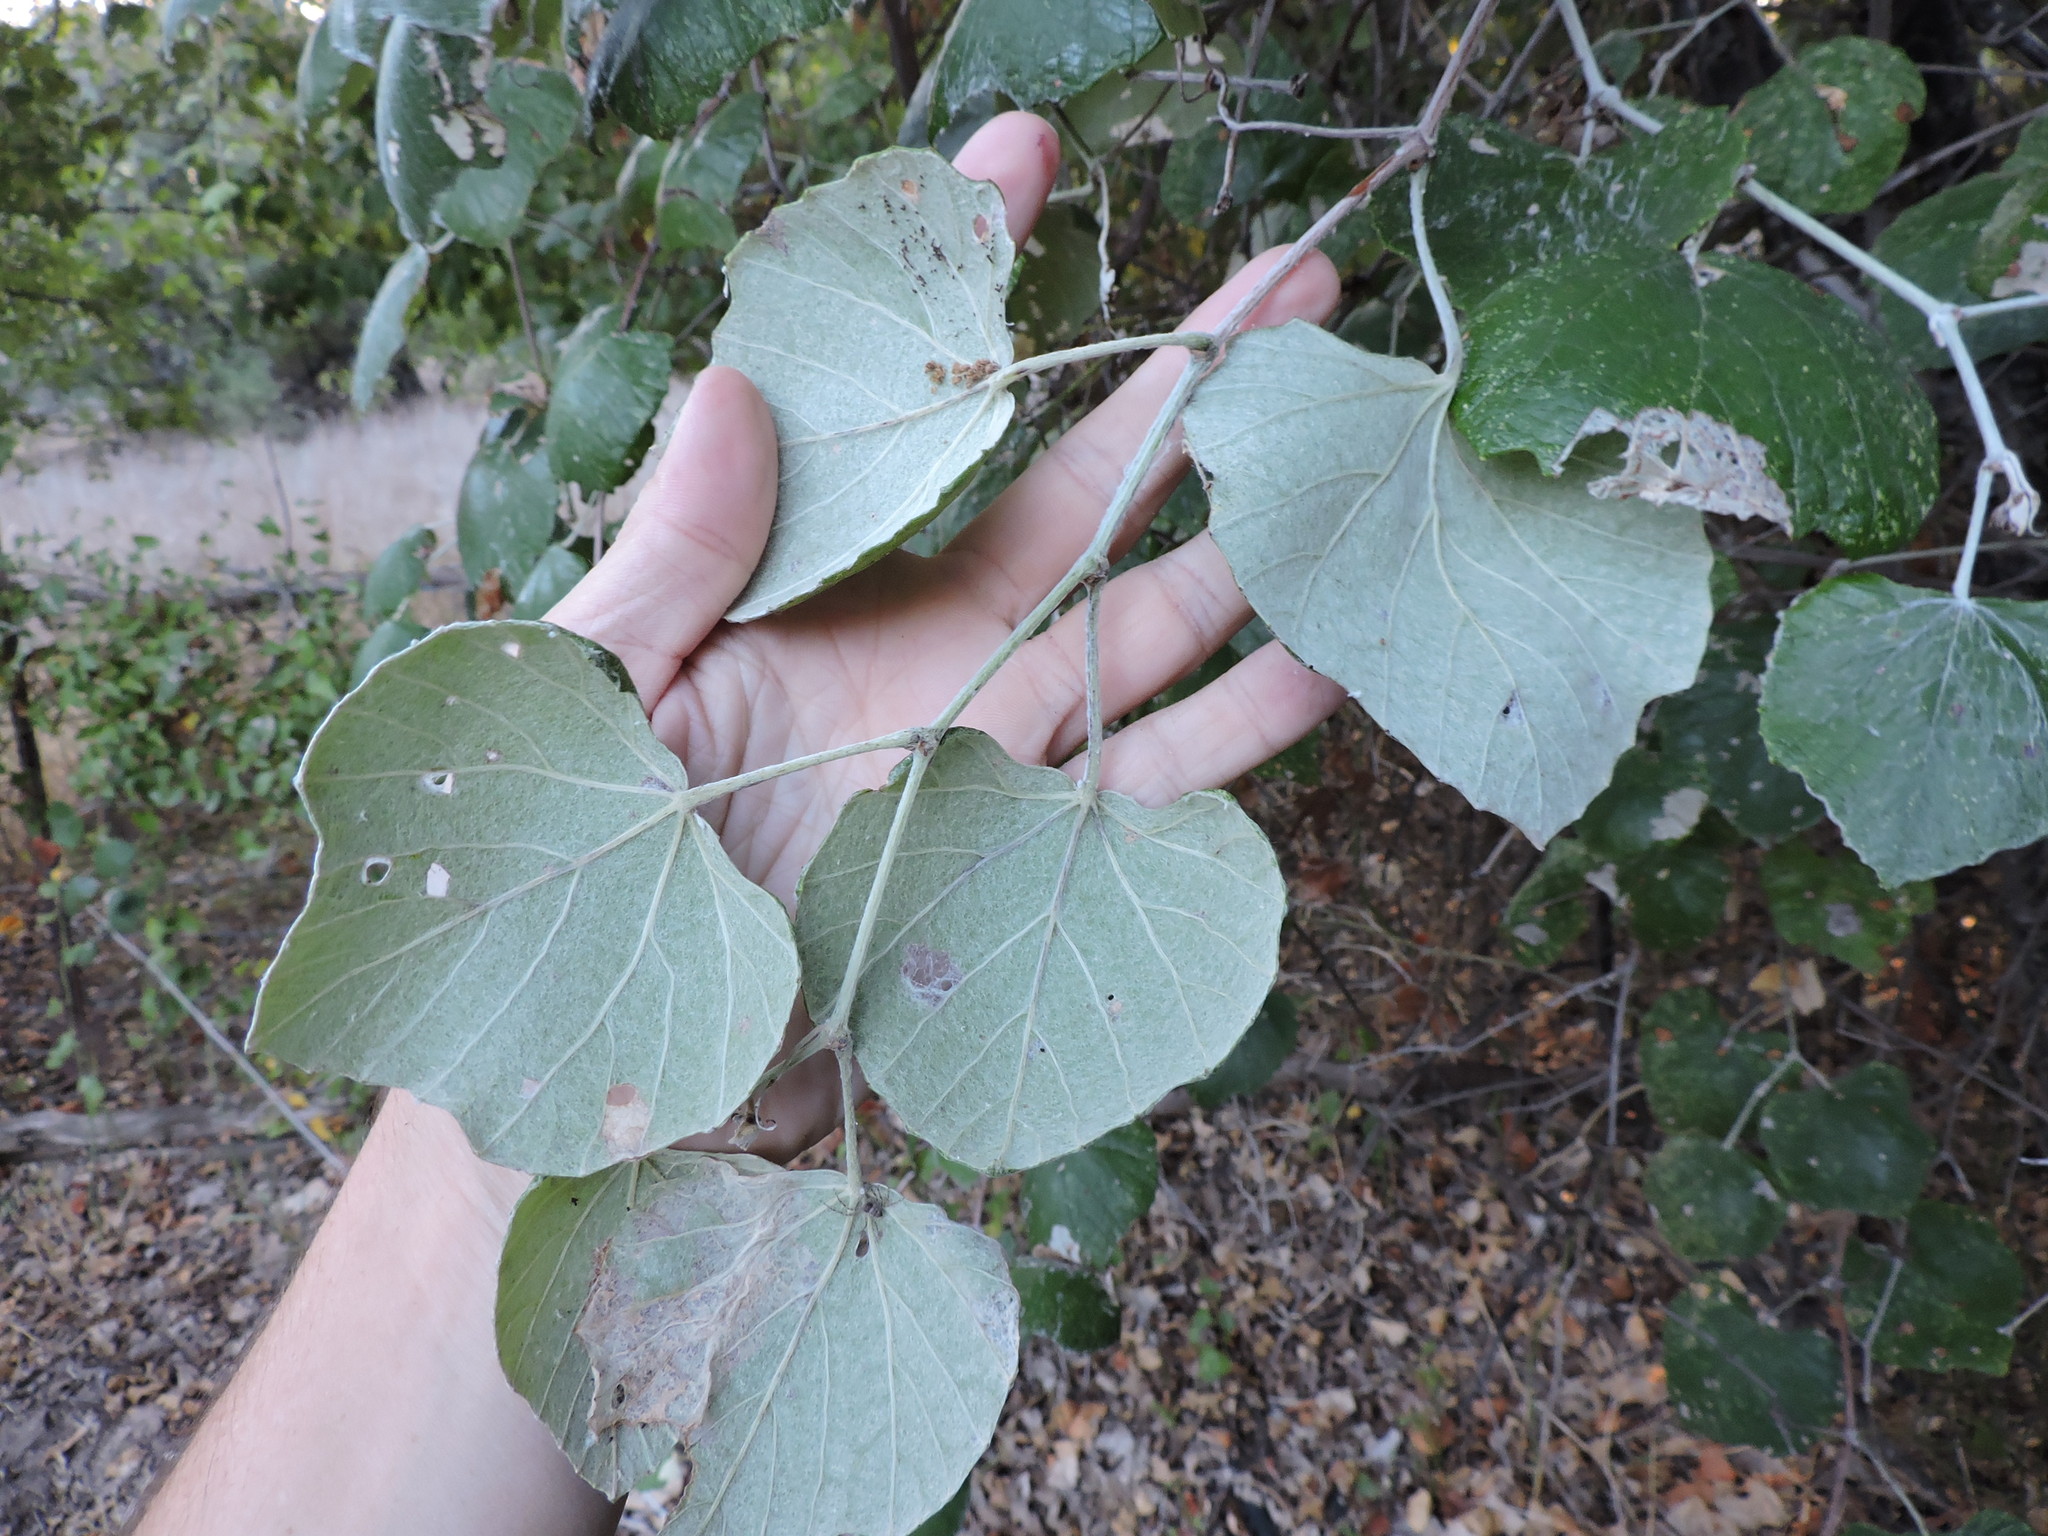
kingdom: Plantae
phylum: Tracheophyta
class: Magnoliopsida
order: Vitales
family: Vitaceae
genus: Vitis
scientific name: Vitis mustangensis
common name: Mustang grape
